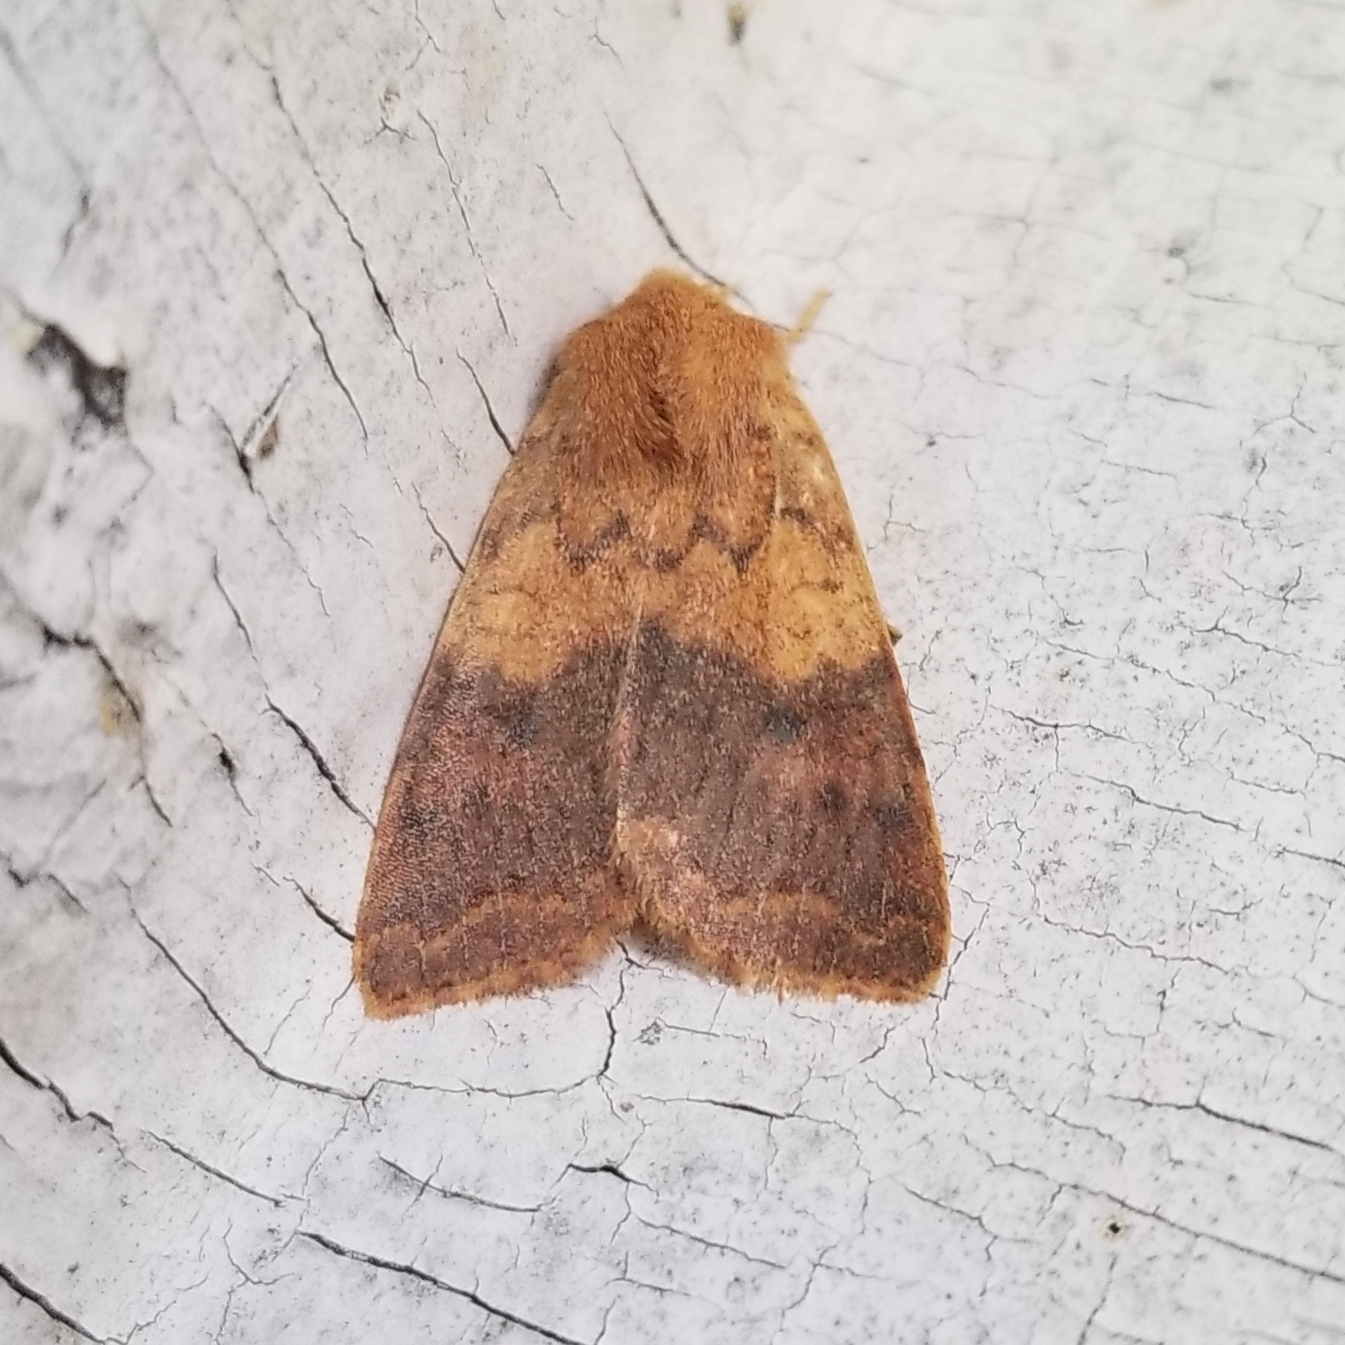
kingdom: Animalia
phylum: Arthropoda
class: Insecta
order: Lepidoptera
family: Noctuidae
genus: Agrochola
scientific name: Agrochola bicolorago
